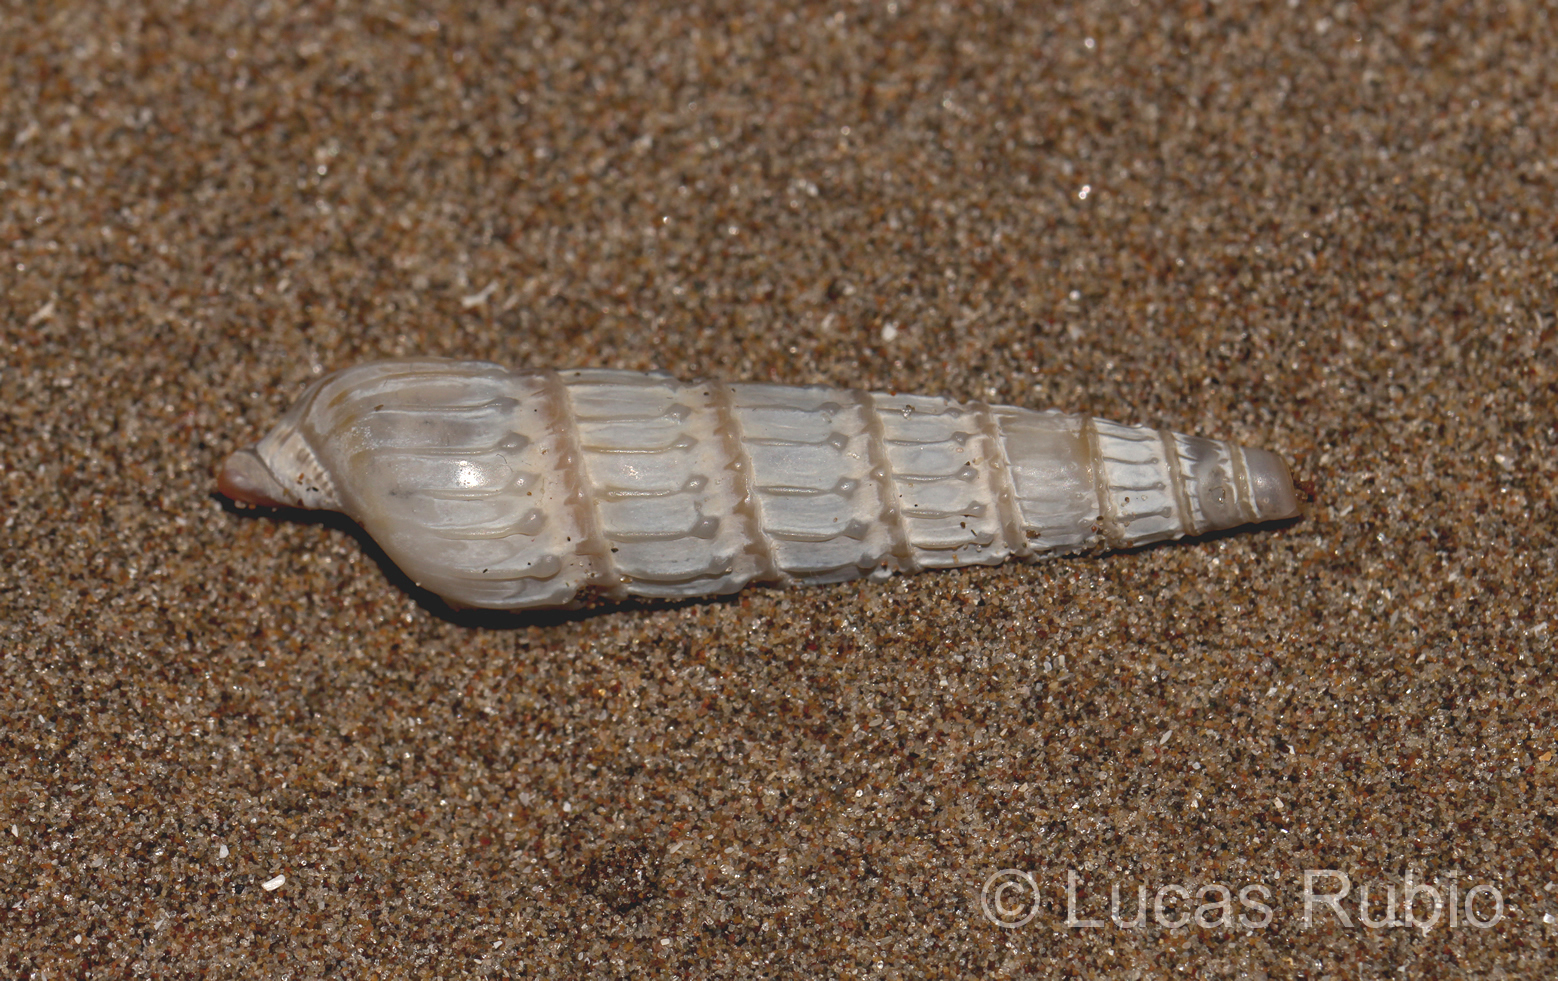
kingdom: Animalia
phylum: Mollusca
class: Gastropoda
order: Neogastropoda
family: Terebridae
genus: Duplicaria
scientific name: Duplicaria gemmulata
